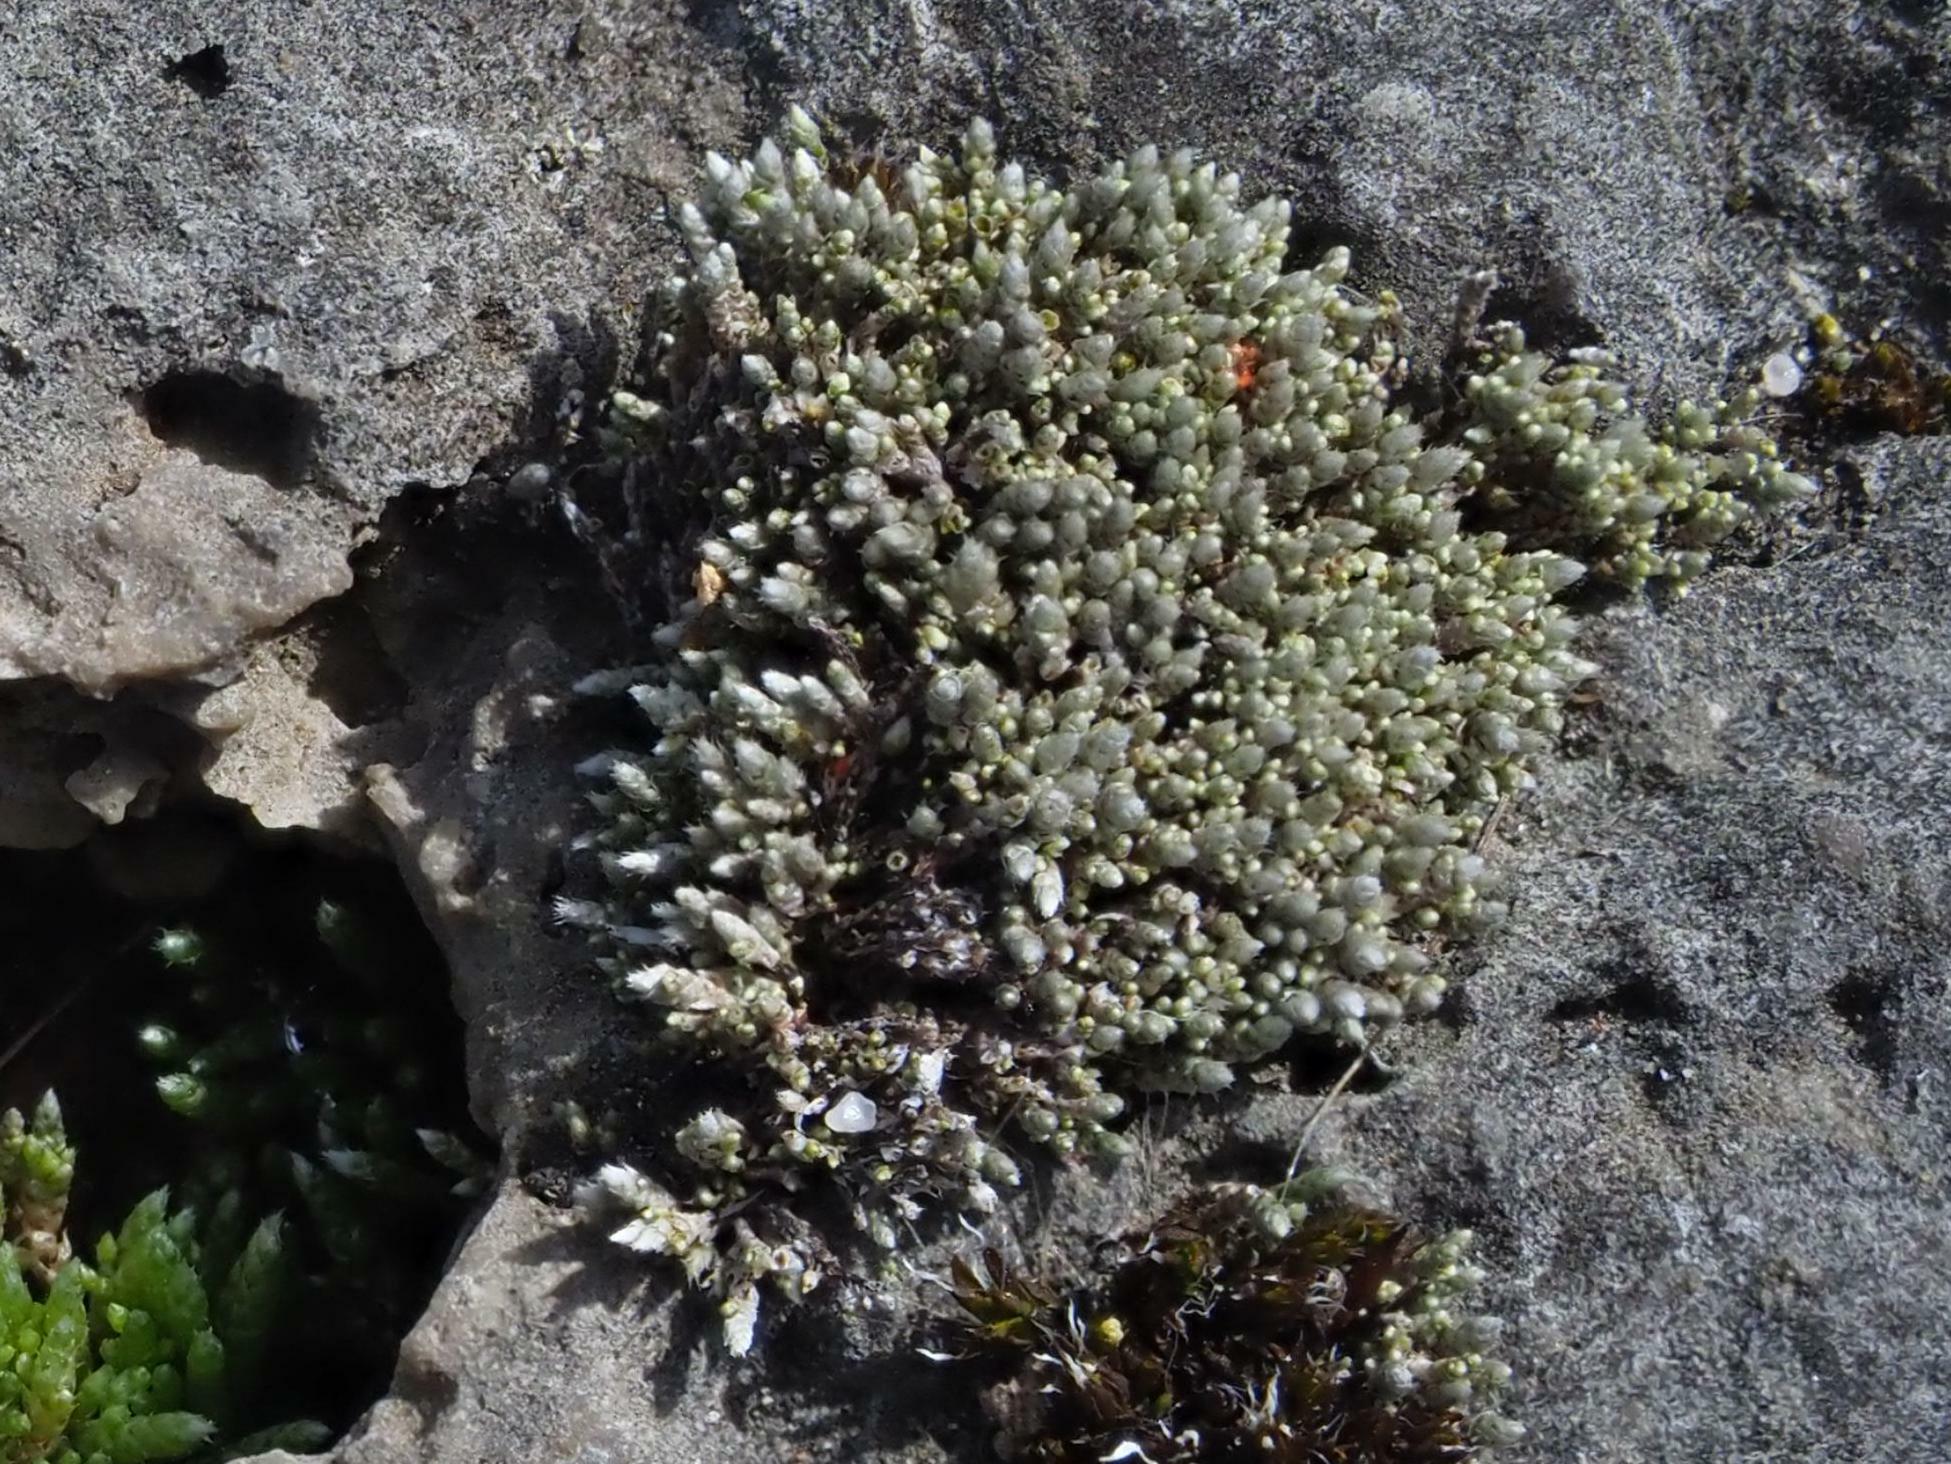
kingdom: Plantae
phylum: Bryophyta
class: Bryopsida
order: Bryales
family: Bryaceae
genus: Bryum
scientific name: Bryum argenteum
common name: Silver-moss
